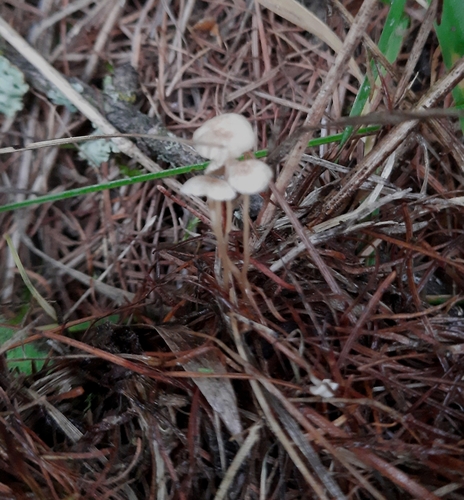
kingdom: Fungi
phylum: Basidiomycota
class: Agaricomycetes
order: Agaricales
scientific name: Agaricales
